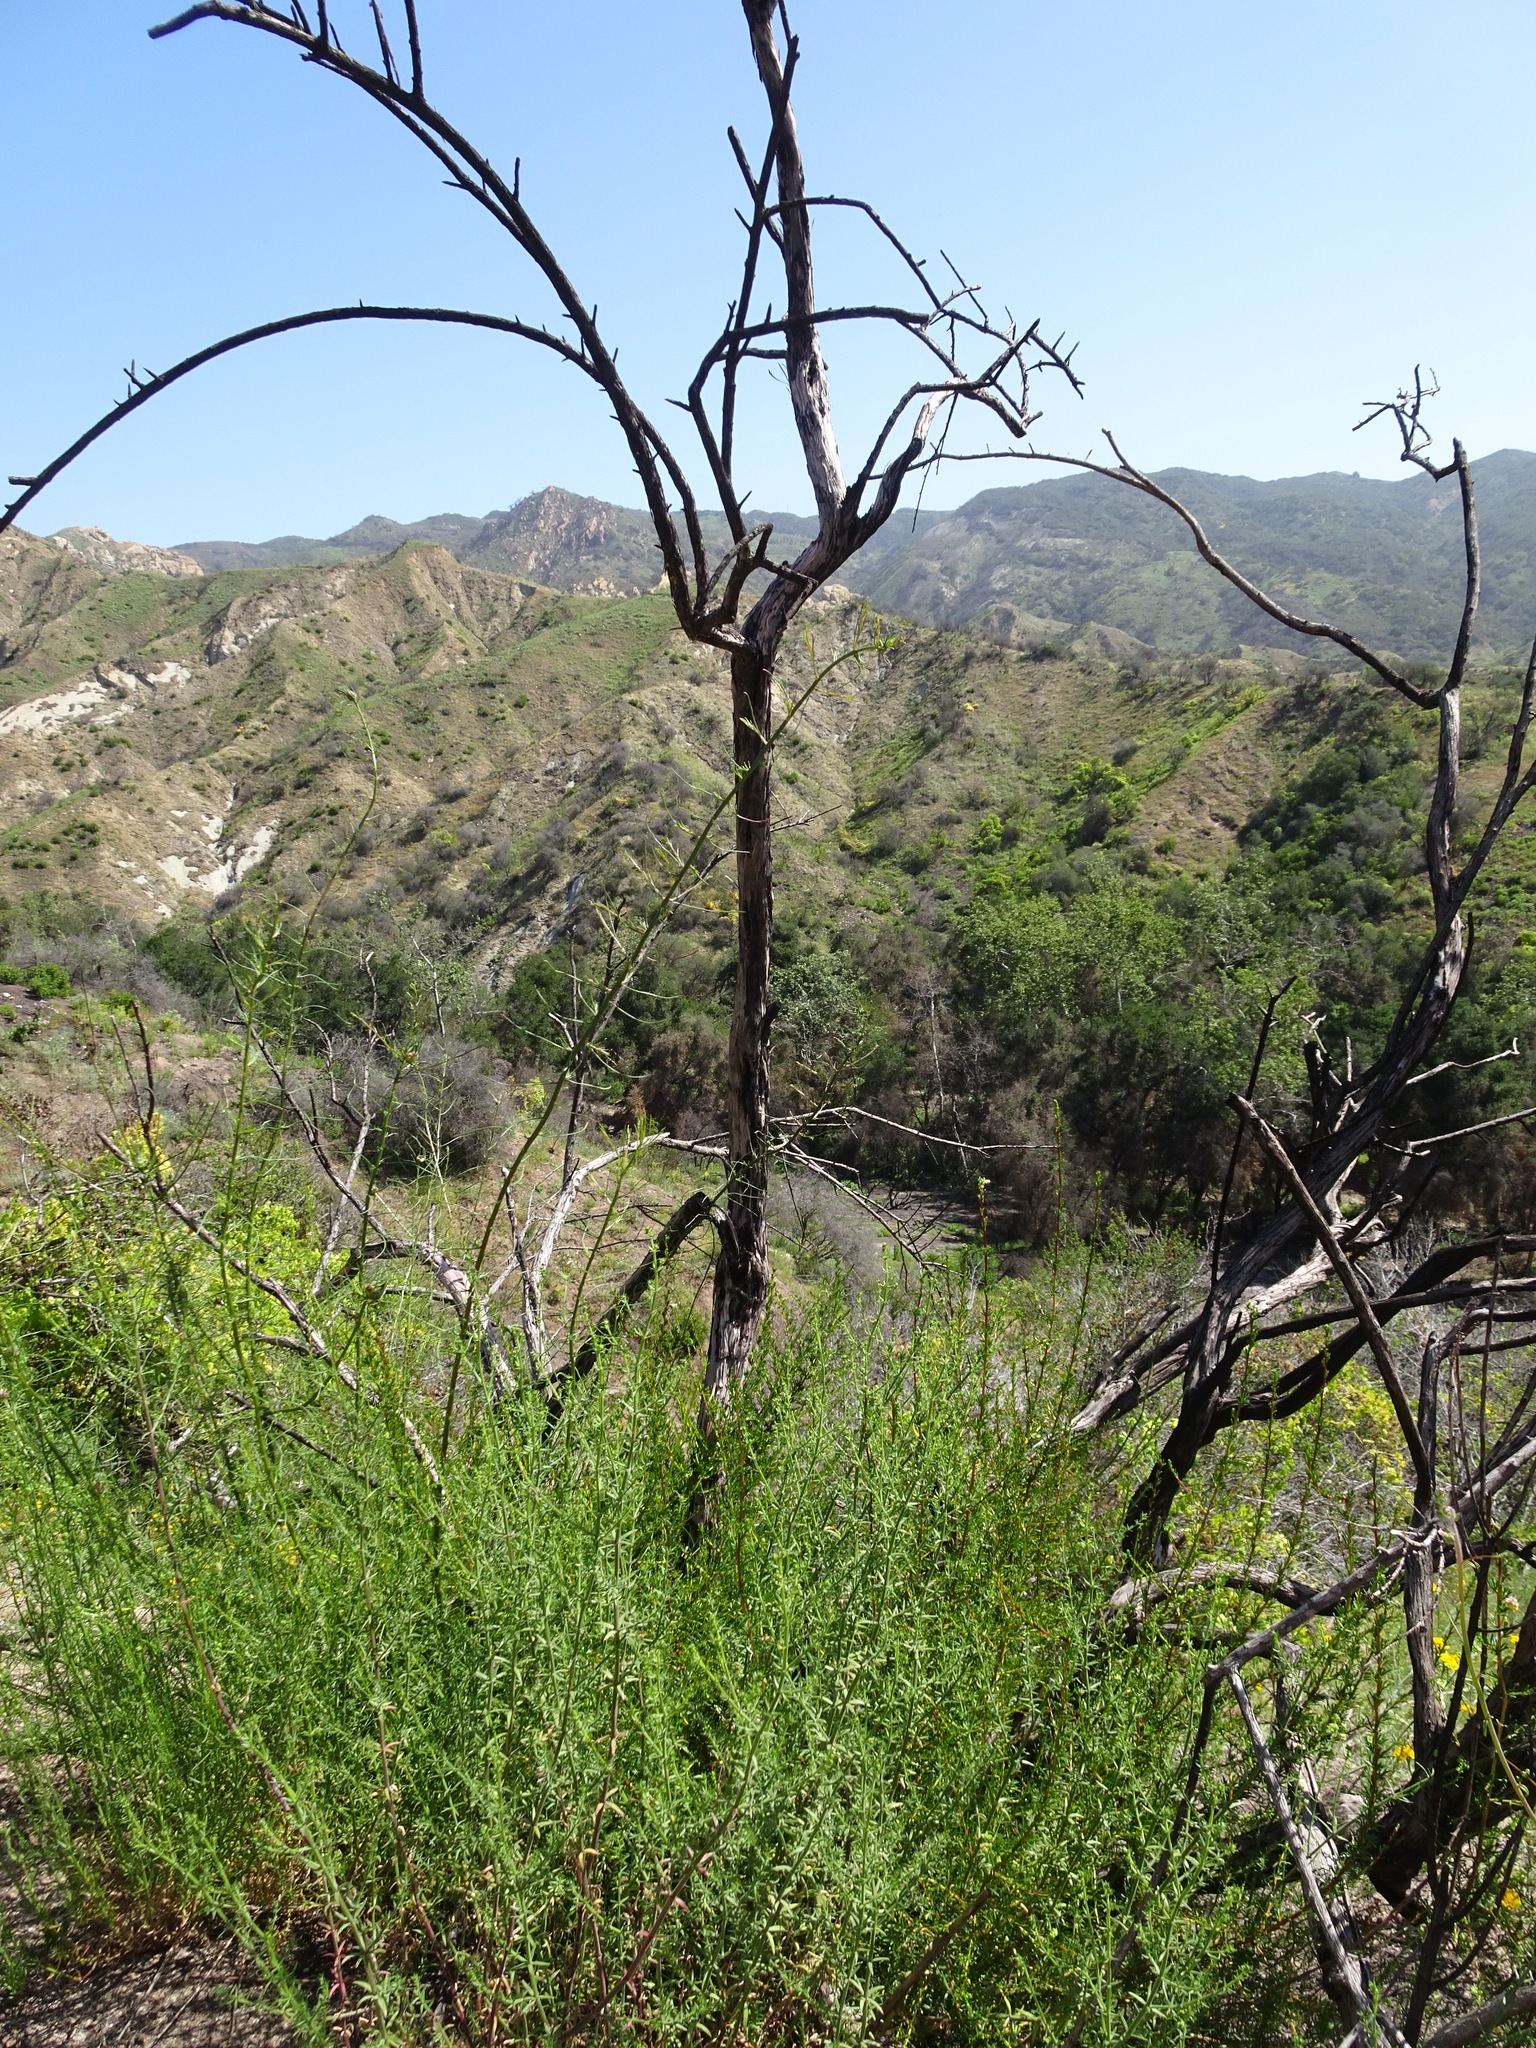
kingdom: Plantae
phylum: Tracheophyta
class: Magnoliopsida
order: Rosales
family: Rosaceae
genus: Adenostoma
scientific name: Adenostoma fasciculatum
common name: Chamise
